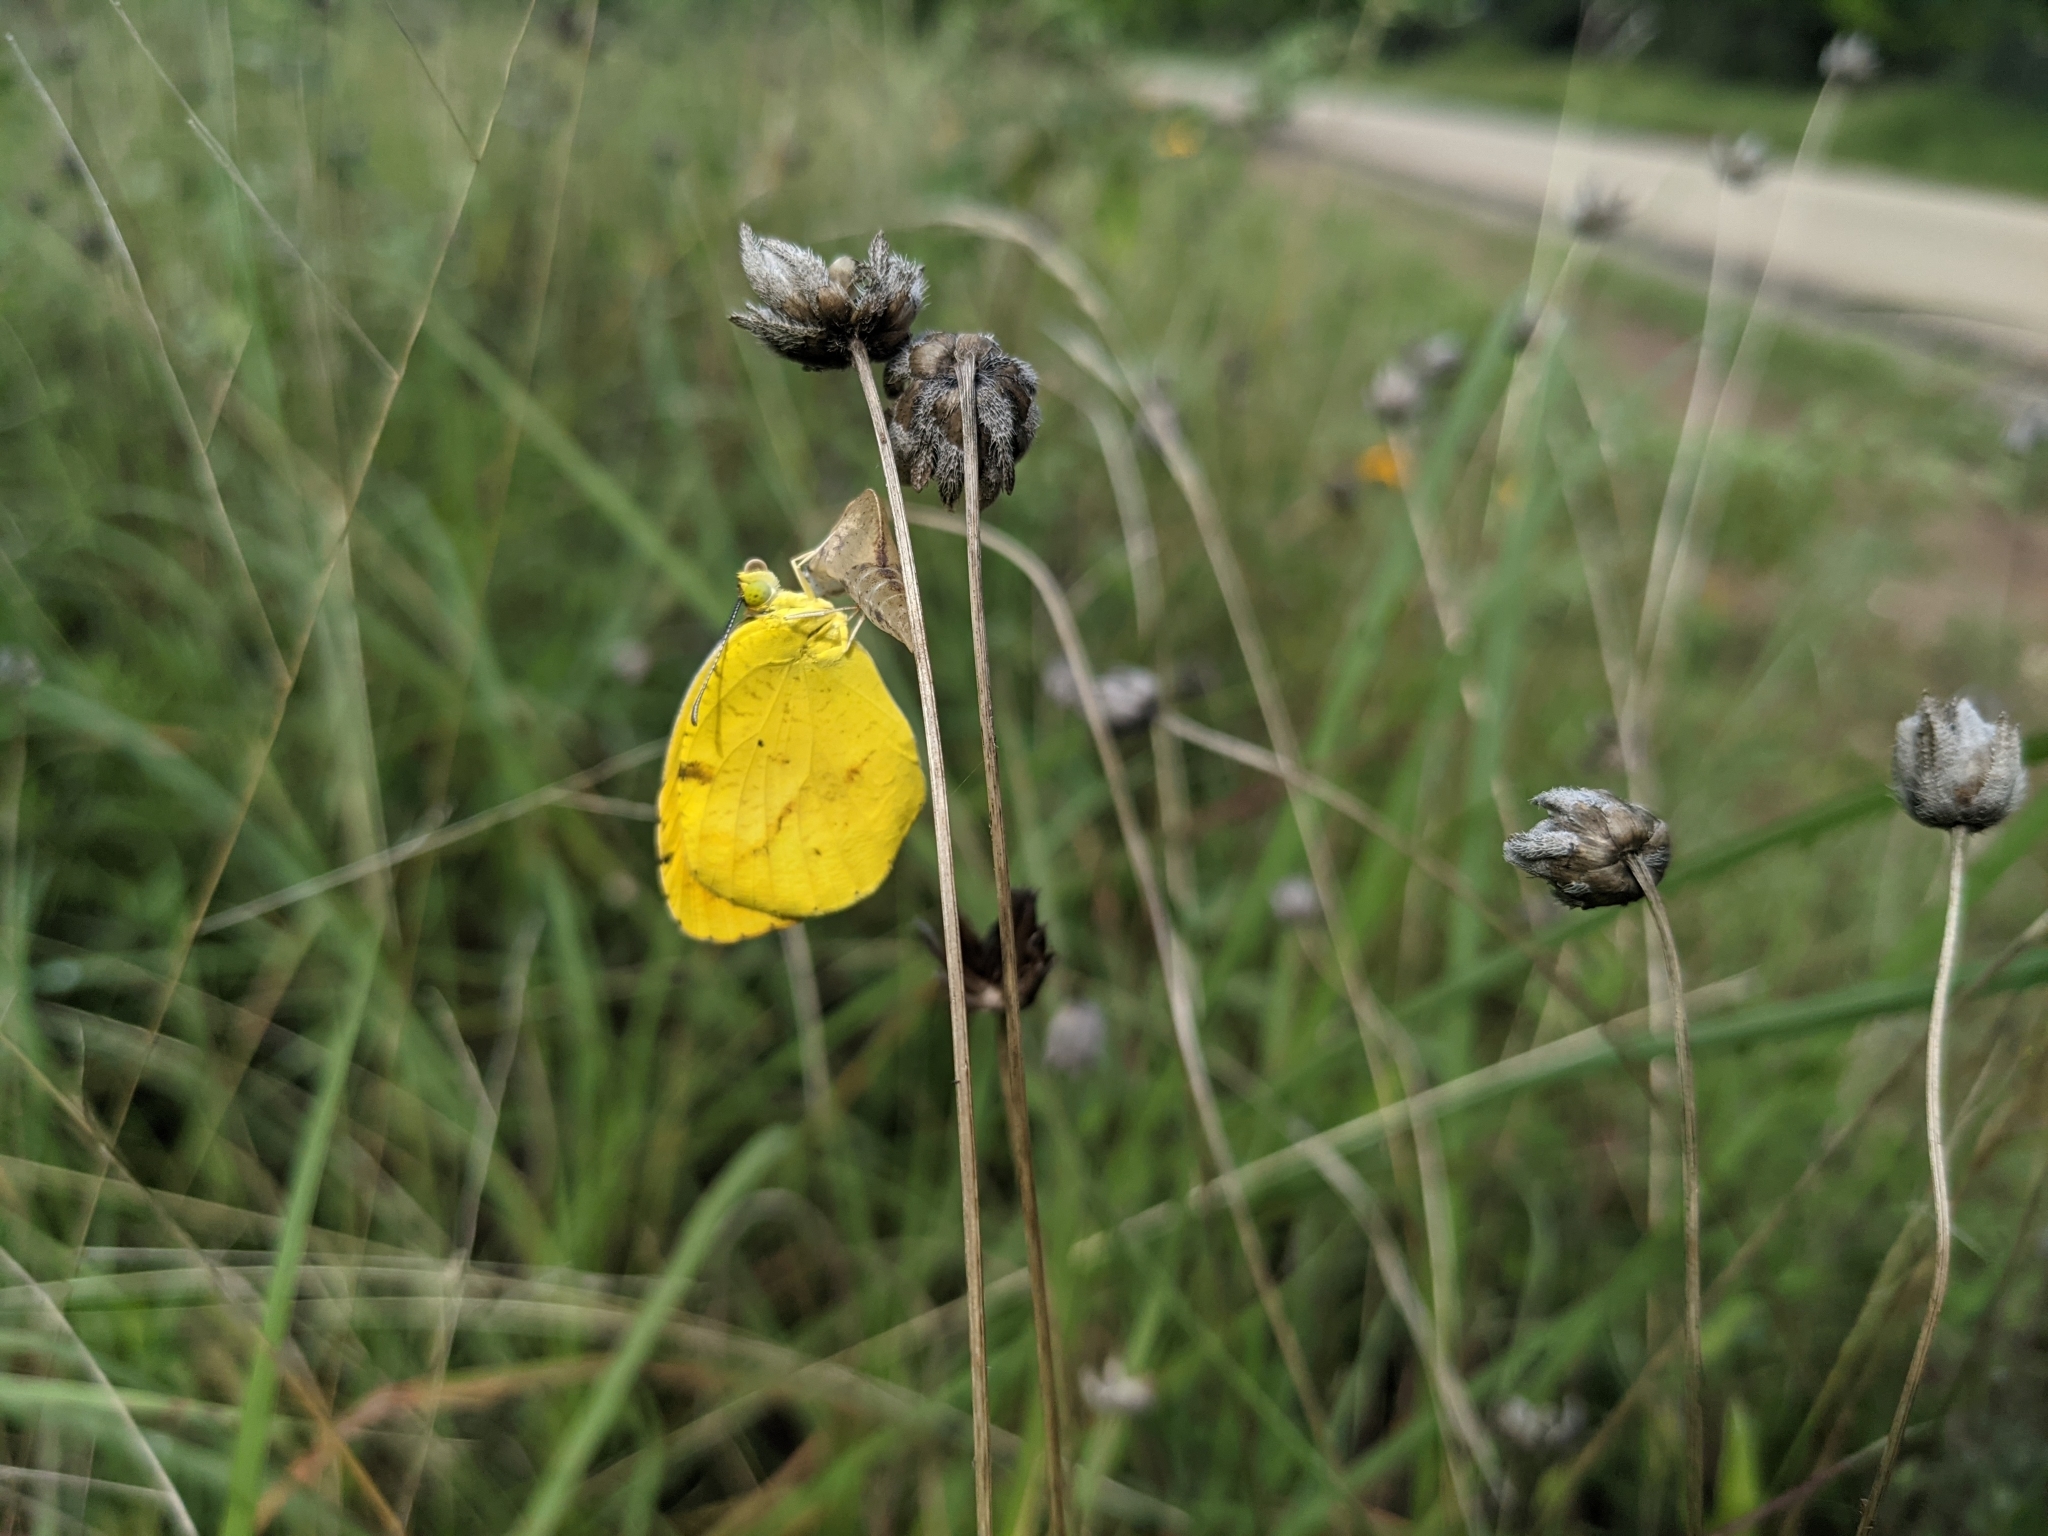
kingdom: Animalia
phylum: Arthropoda
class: Insecta
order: Lepidoptera
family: Pieridae
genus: Abaeis
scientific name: Abaeis nicippe
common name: Sleepy orange
